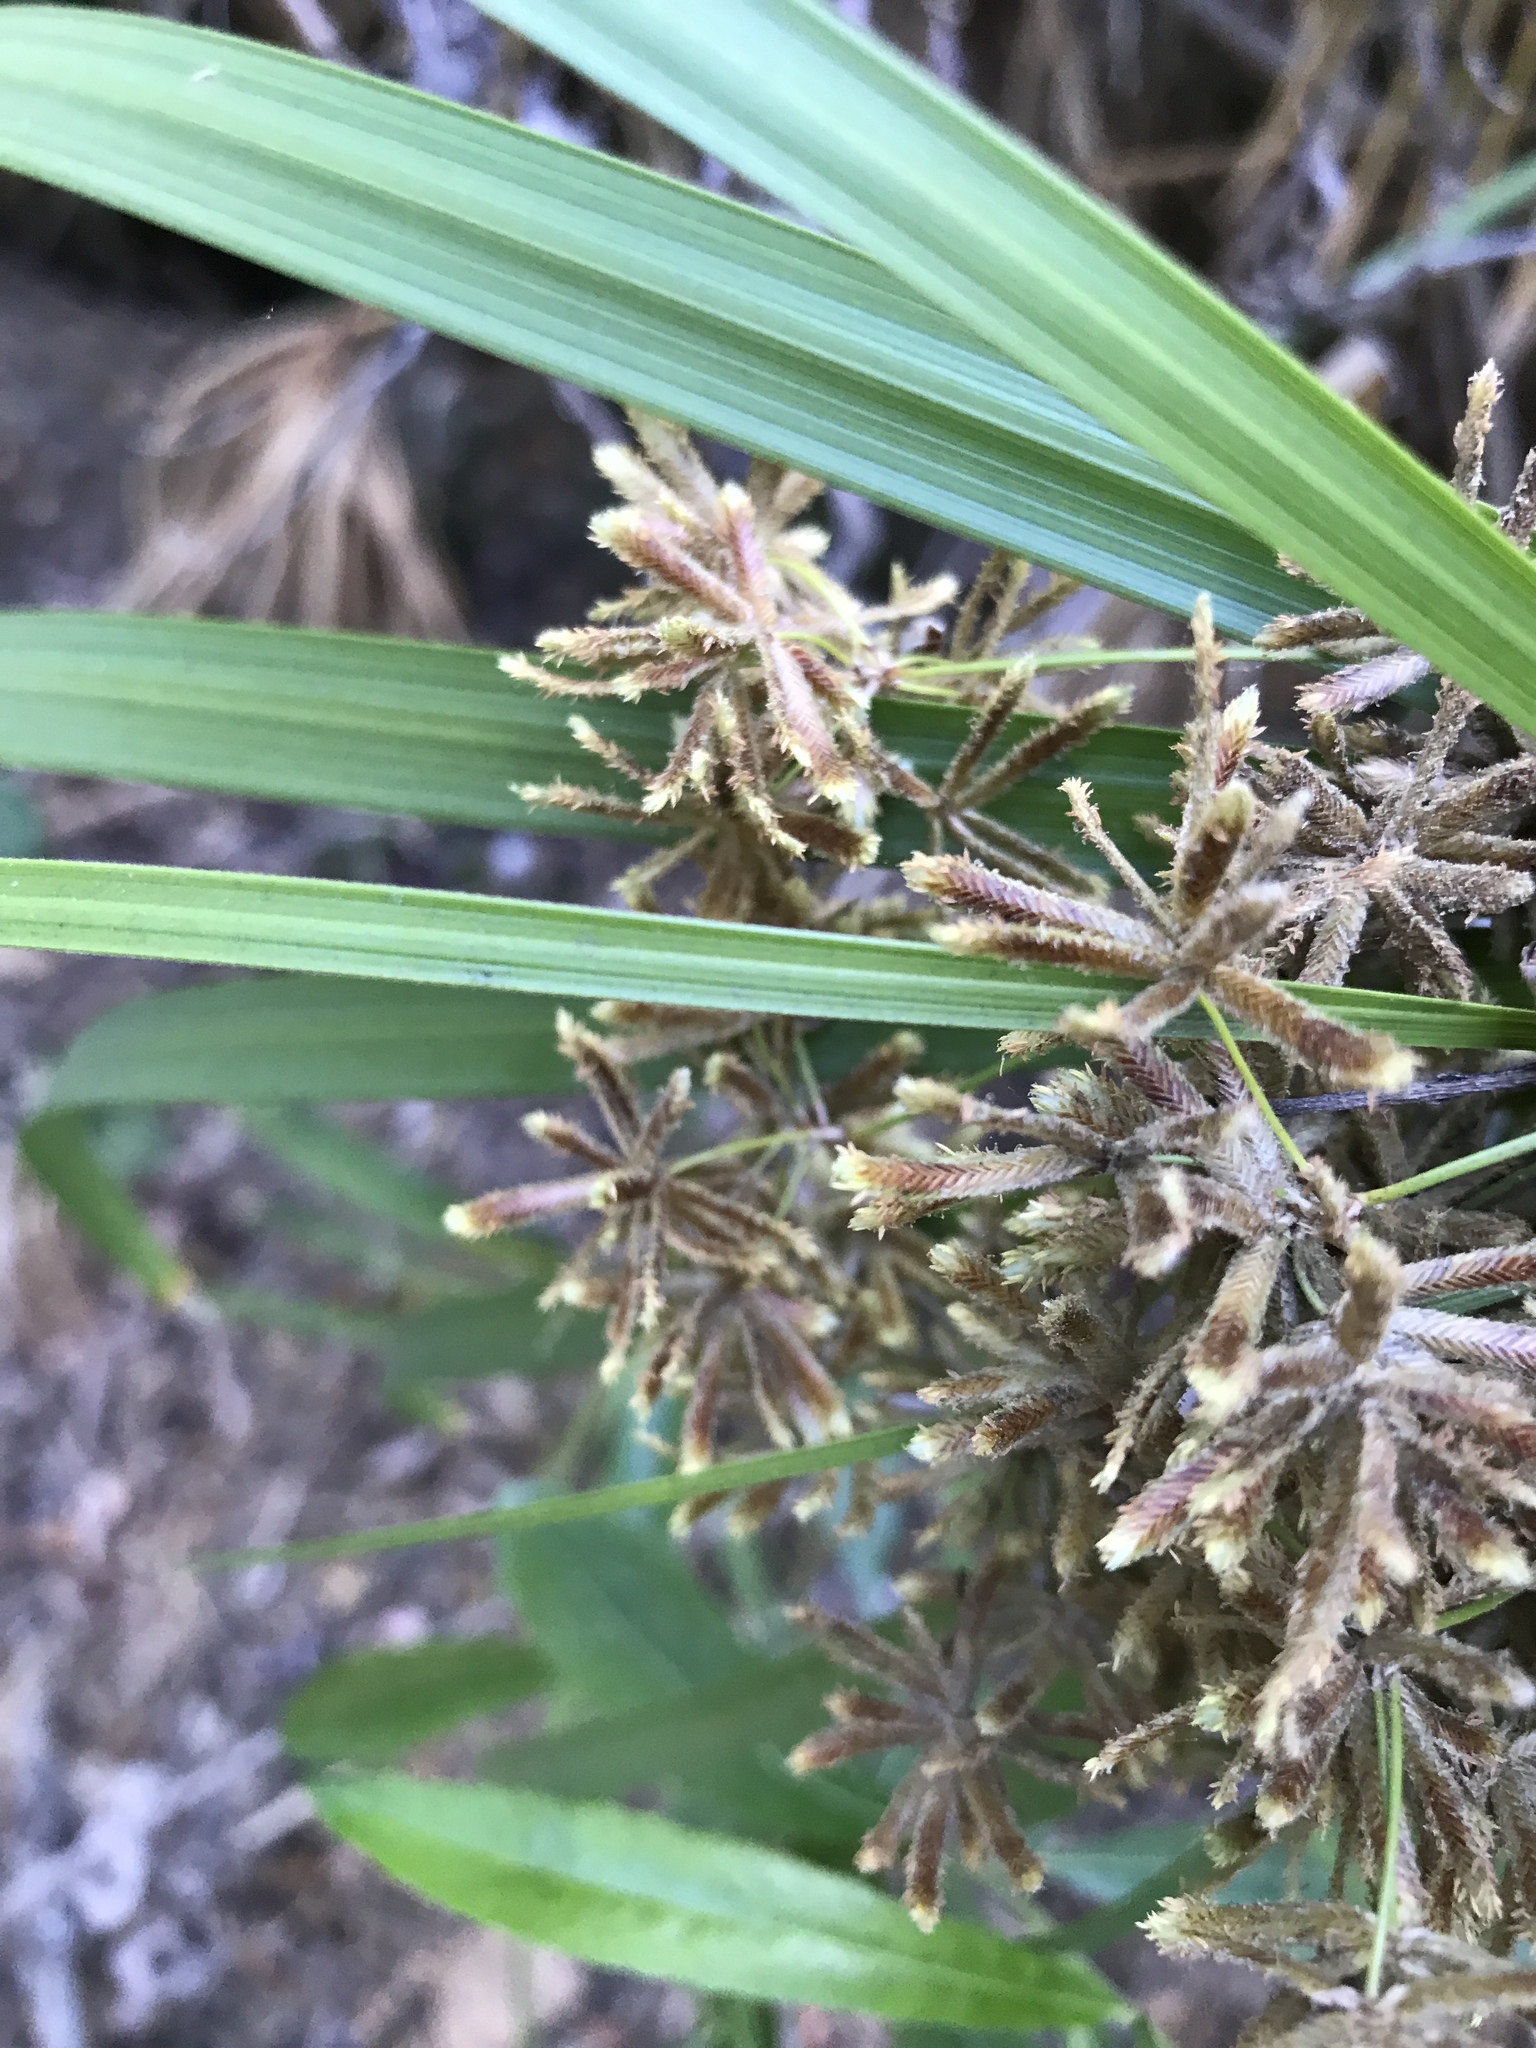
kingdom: Plantae
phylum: Tracheophyta
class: Liliopsida
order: Poales
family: Cyperaceae
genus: Cyperus
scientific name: Cyperus alternifolius
